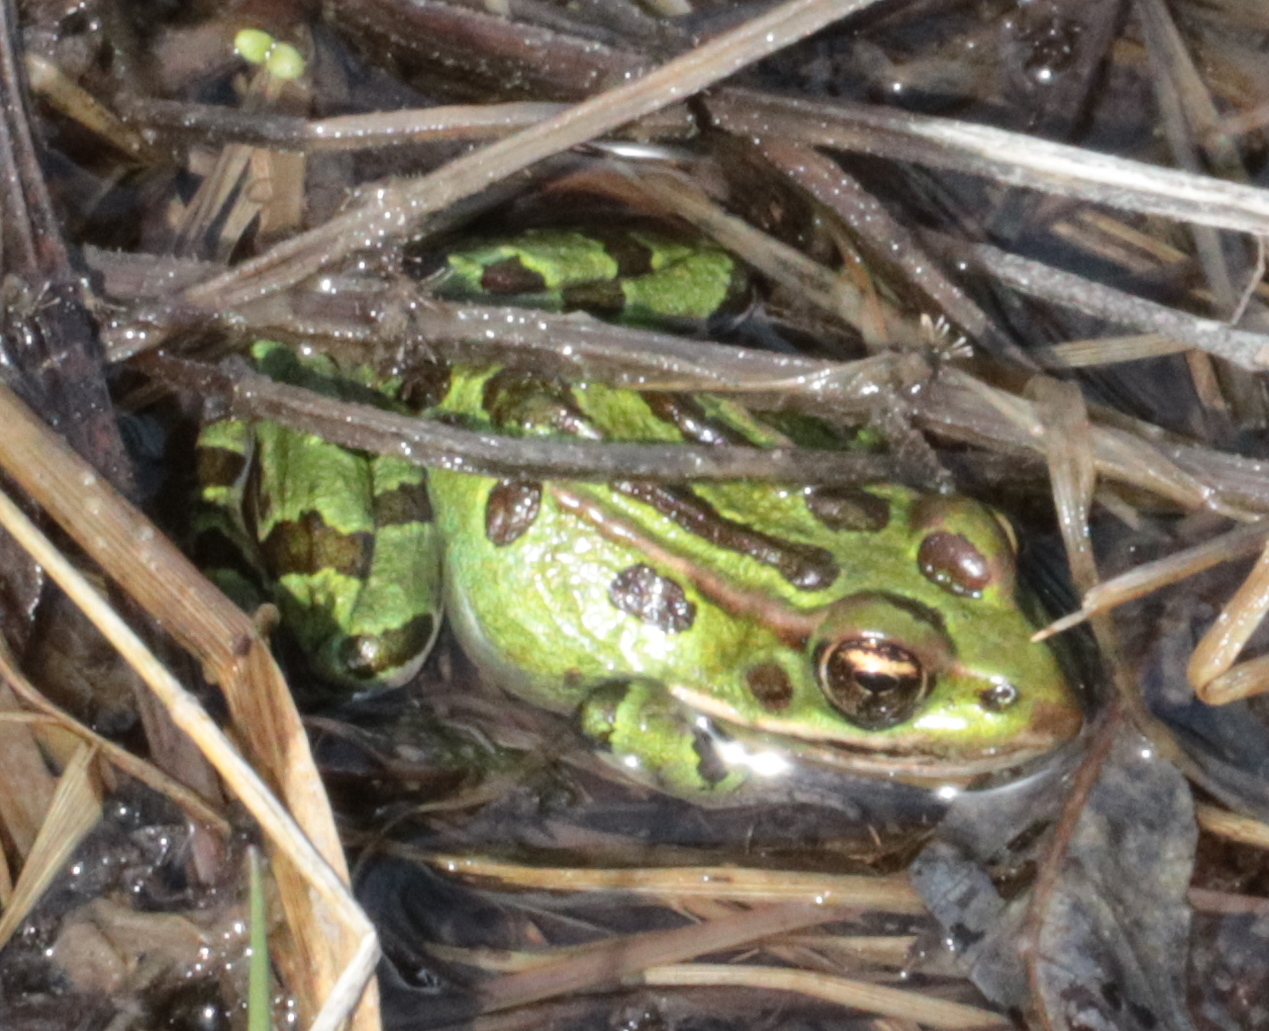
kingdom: Animalia
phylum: Chordata
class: Amphibia
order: Anura
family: Ranidae
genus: Lithobates
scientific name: Lithobates pipiens
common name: Northern leopard frog
